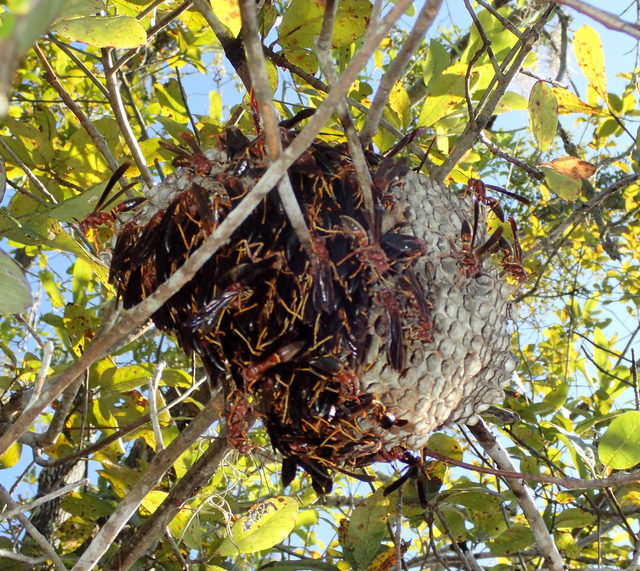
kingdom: Animalia
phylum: Arthropoda
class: Insecta
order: Hymenoptera
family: Eumenidae
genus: Polistes
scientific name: Polistes annularis
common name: Ringed paper wasp
